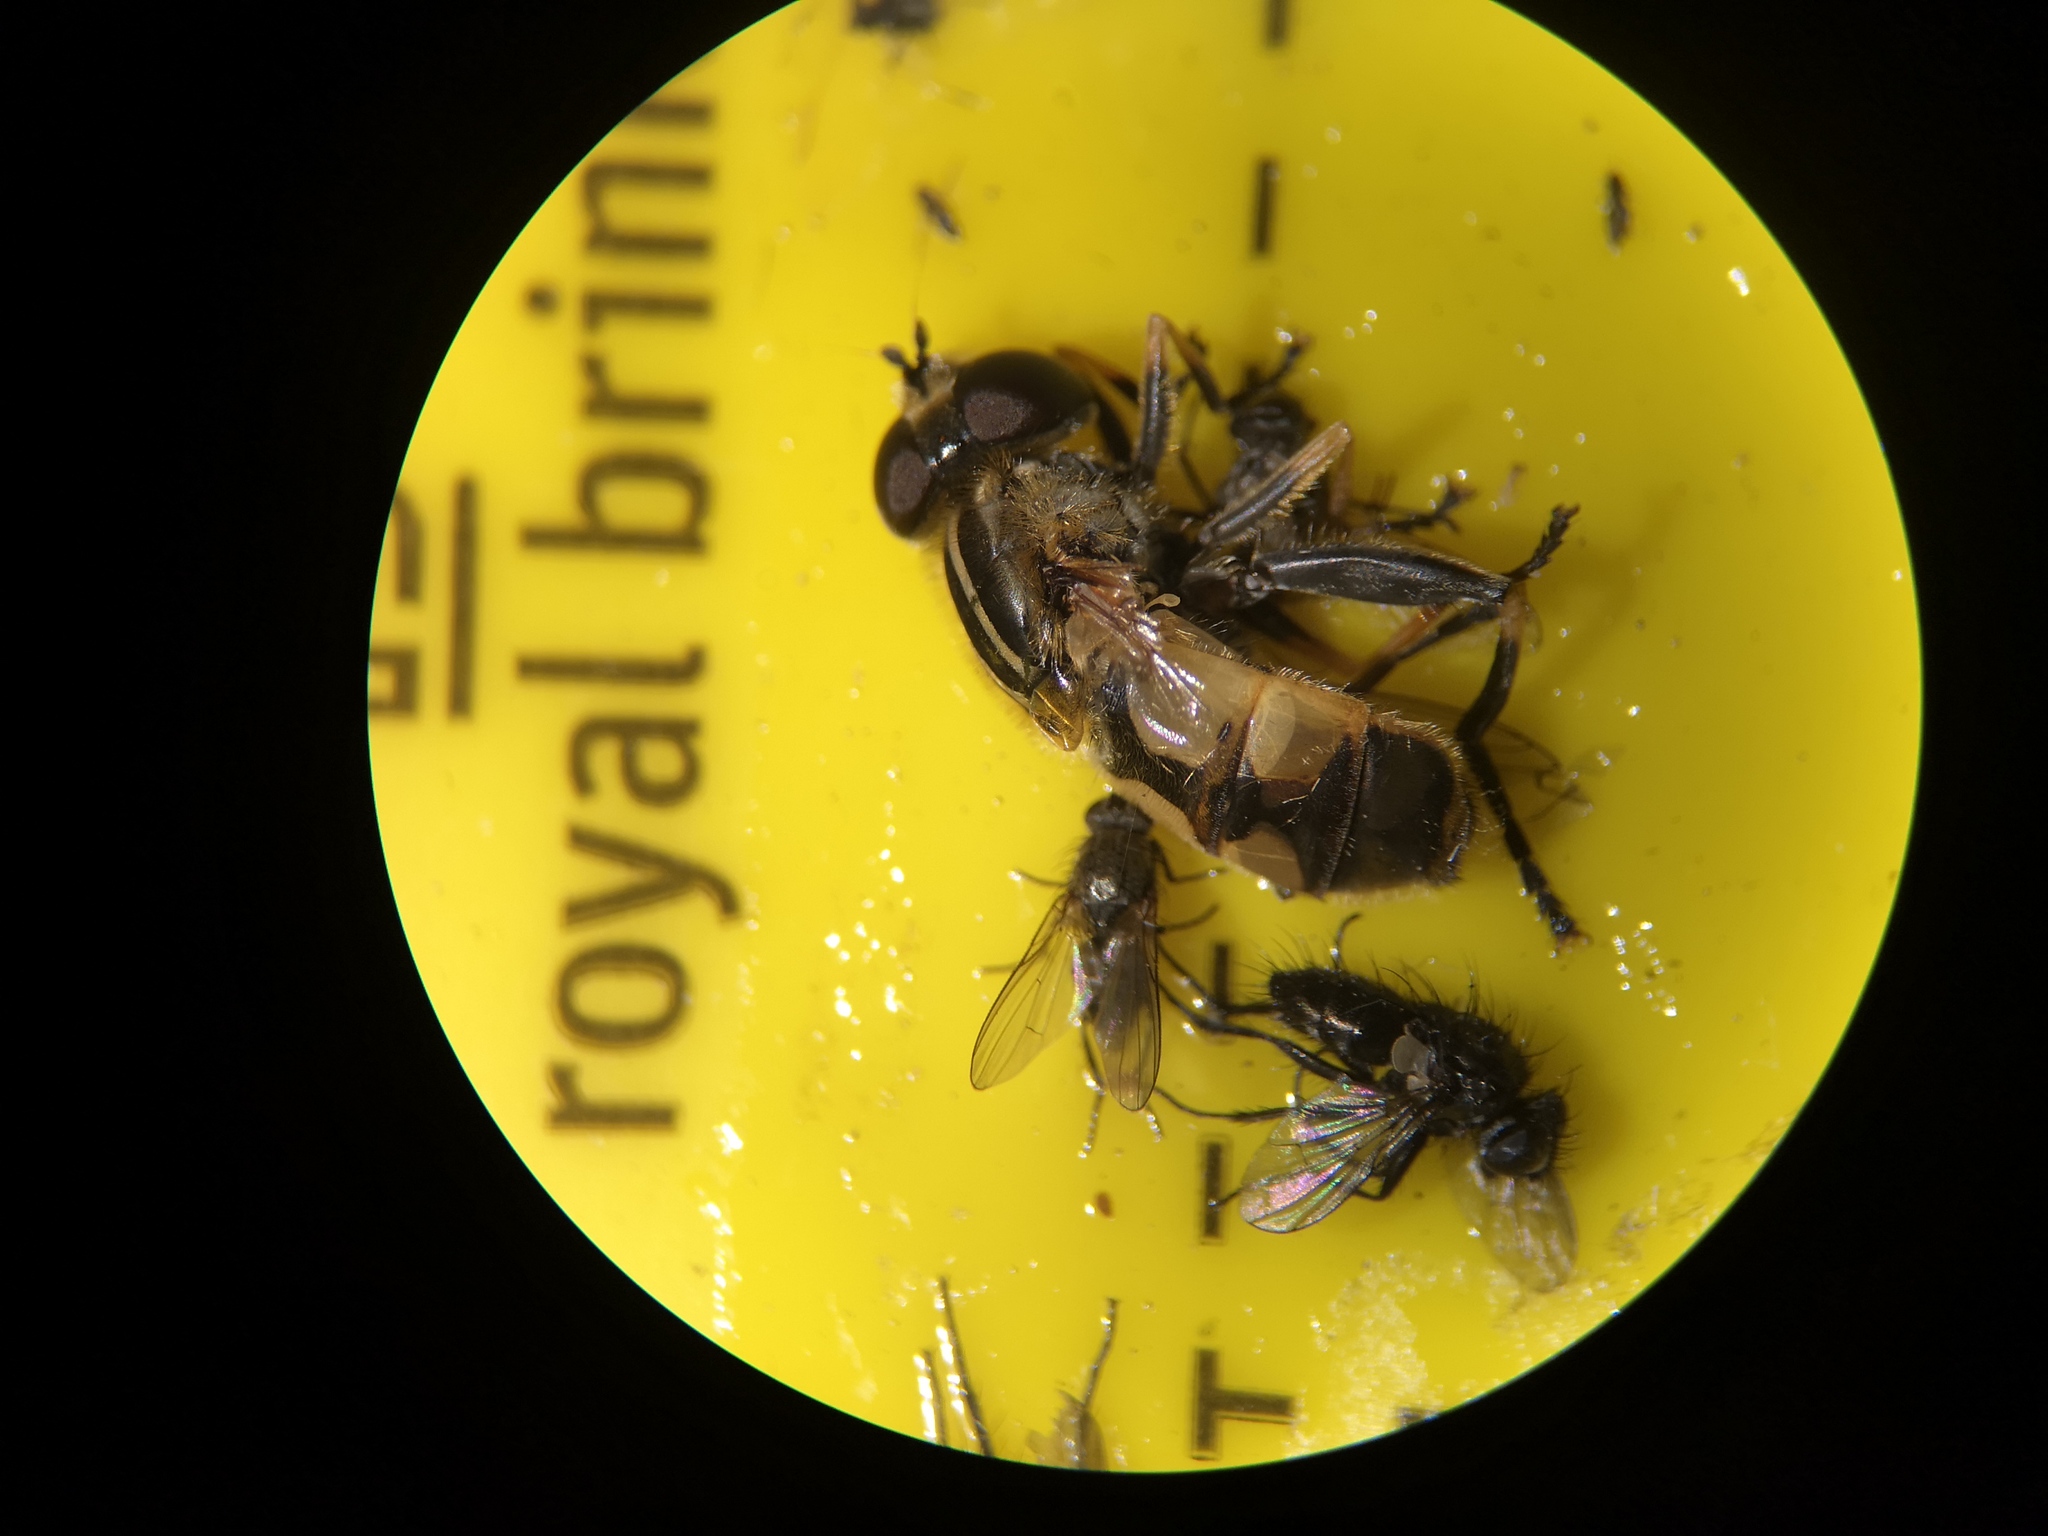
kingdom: Animalia
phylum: Arthropoda
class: Insecta
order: Diptera
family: Syrphidae
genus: Helophilus
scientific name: Helophilus hybridus
